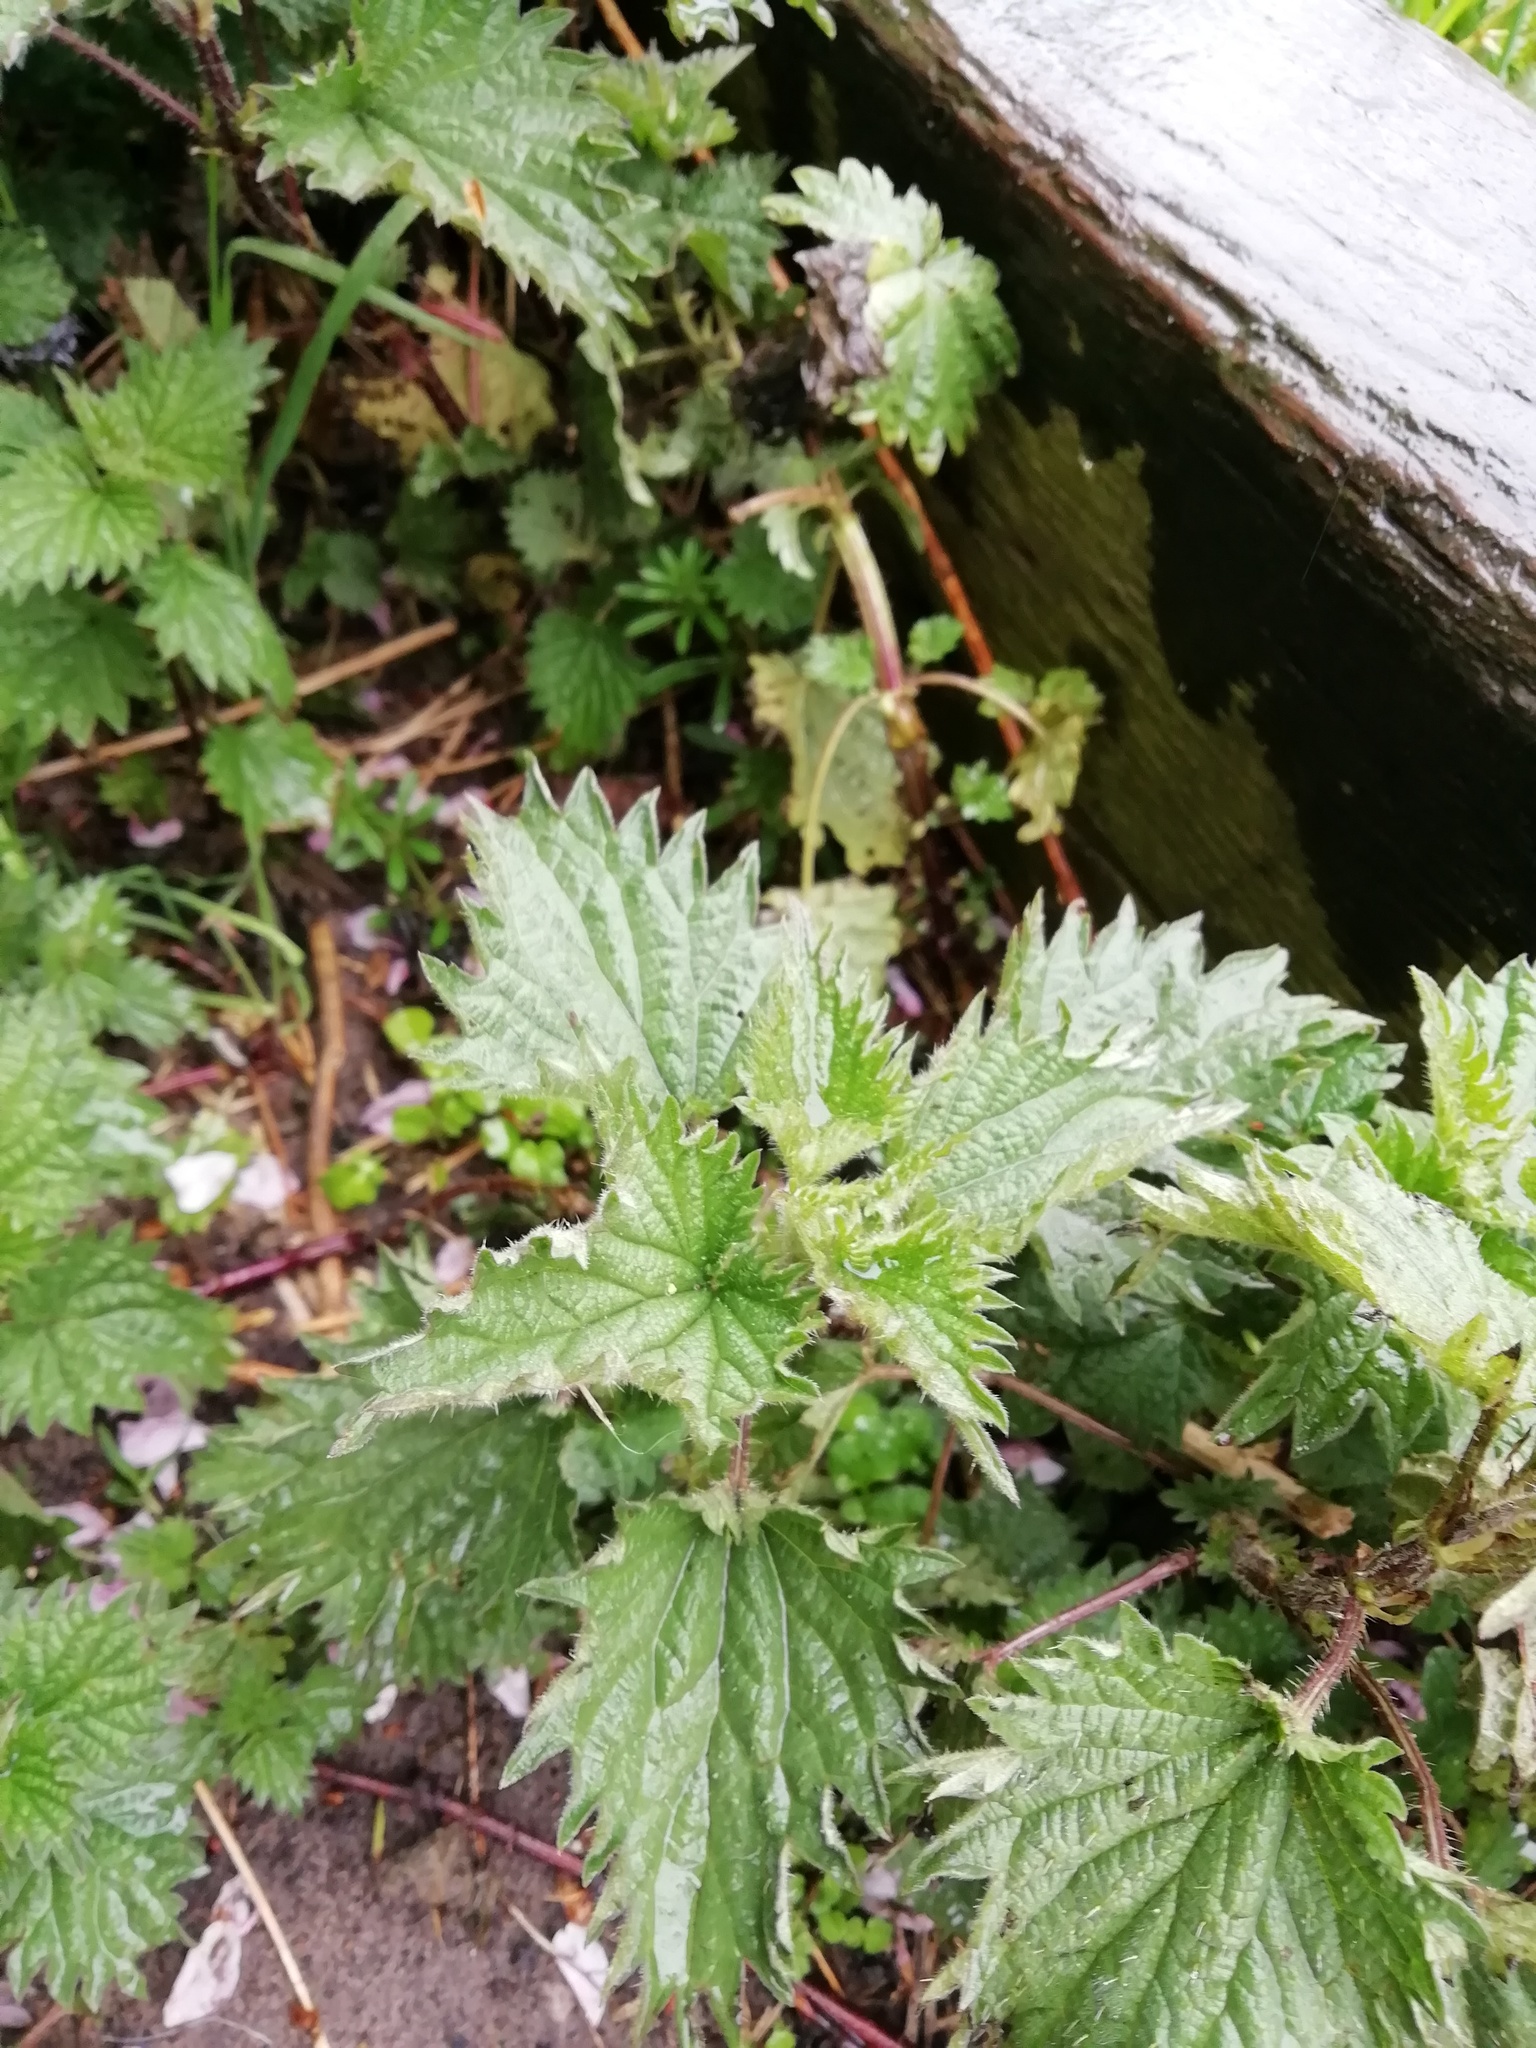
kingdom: Plantae
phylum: Tracheophyta
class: Magnoliopsida
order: Rosales
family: Urticaceae
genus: Urtica
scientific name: Urtica dioica
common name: Common nettle
